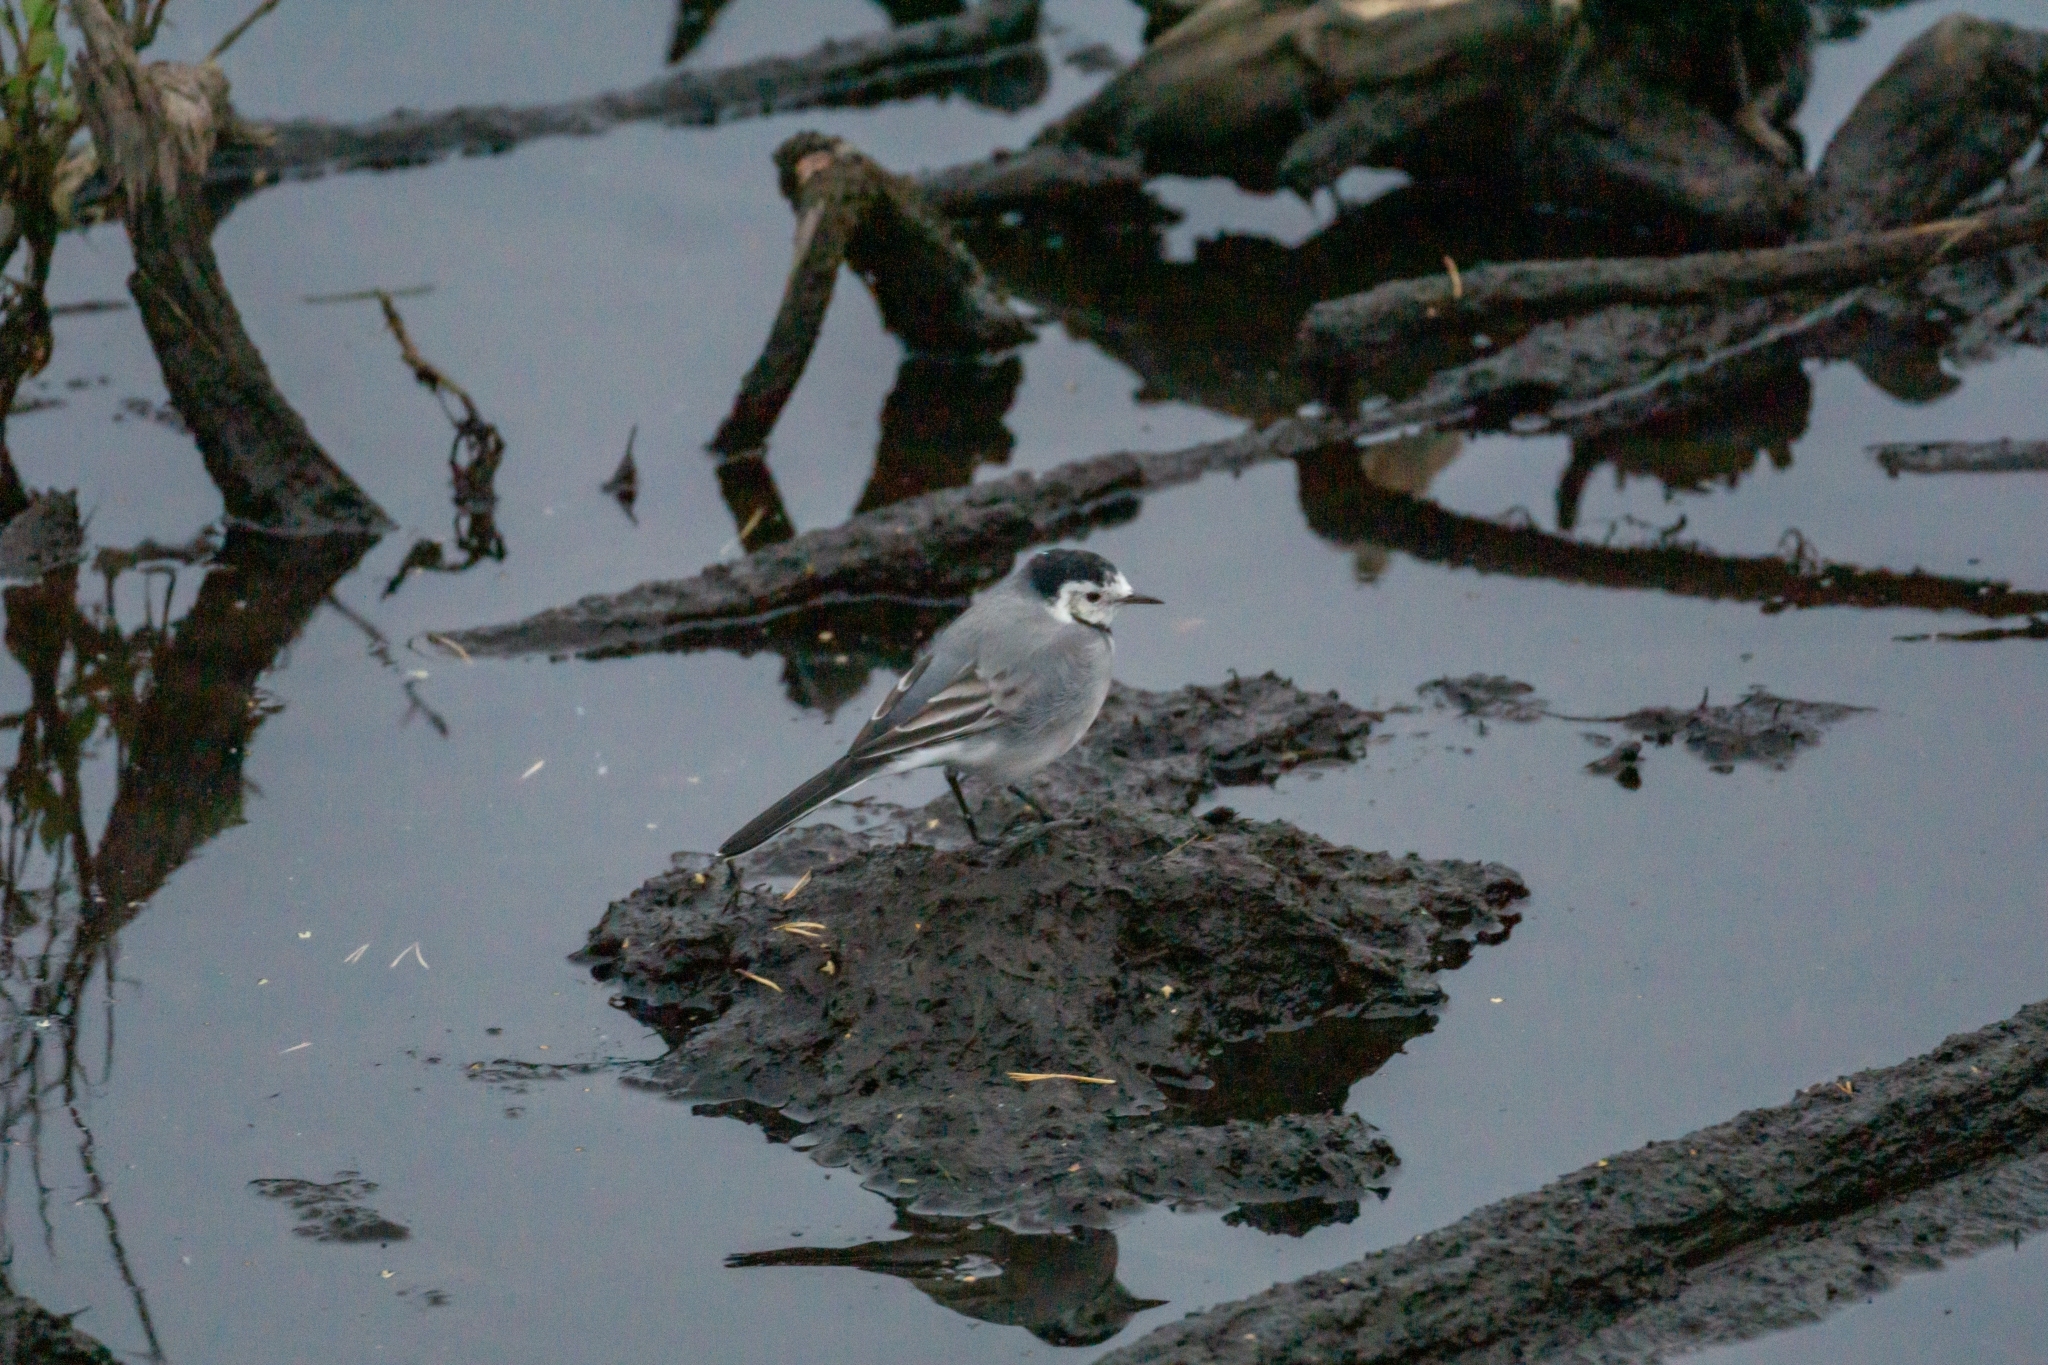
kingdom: Animalia
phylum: Chordata
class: Aves
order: Passeriformes
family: Motacillidae
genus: Motacilla
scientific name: Motacilla alba
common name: White wagtail
